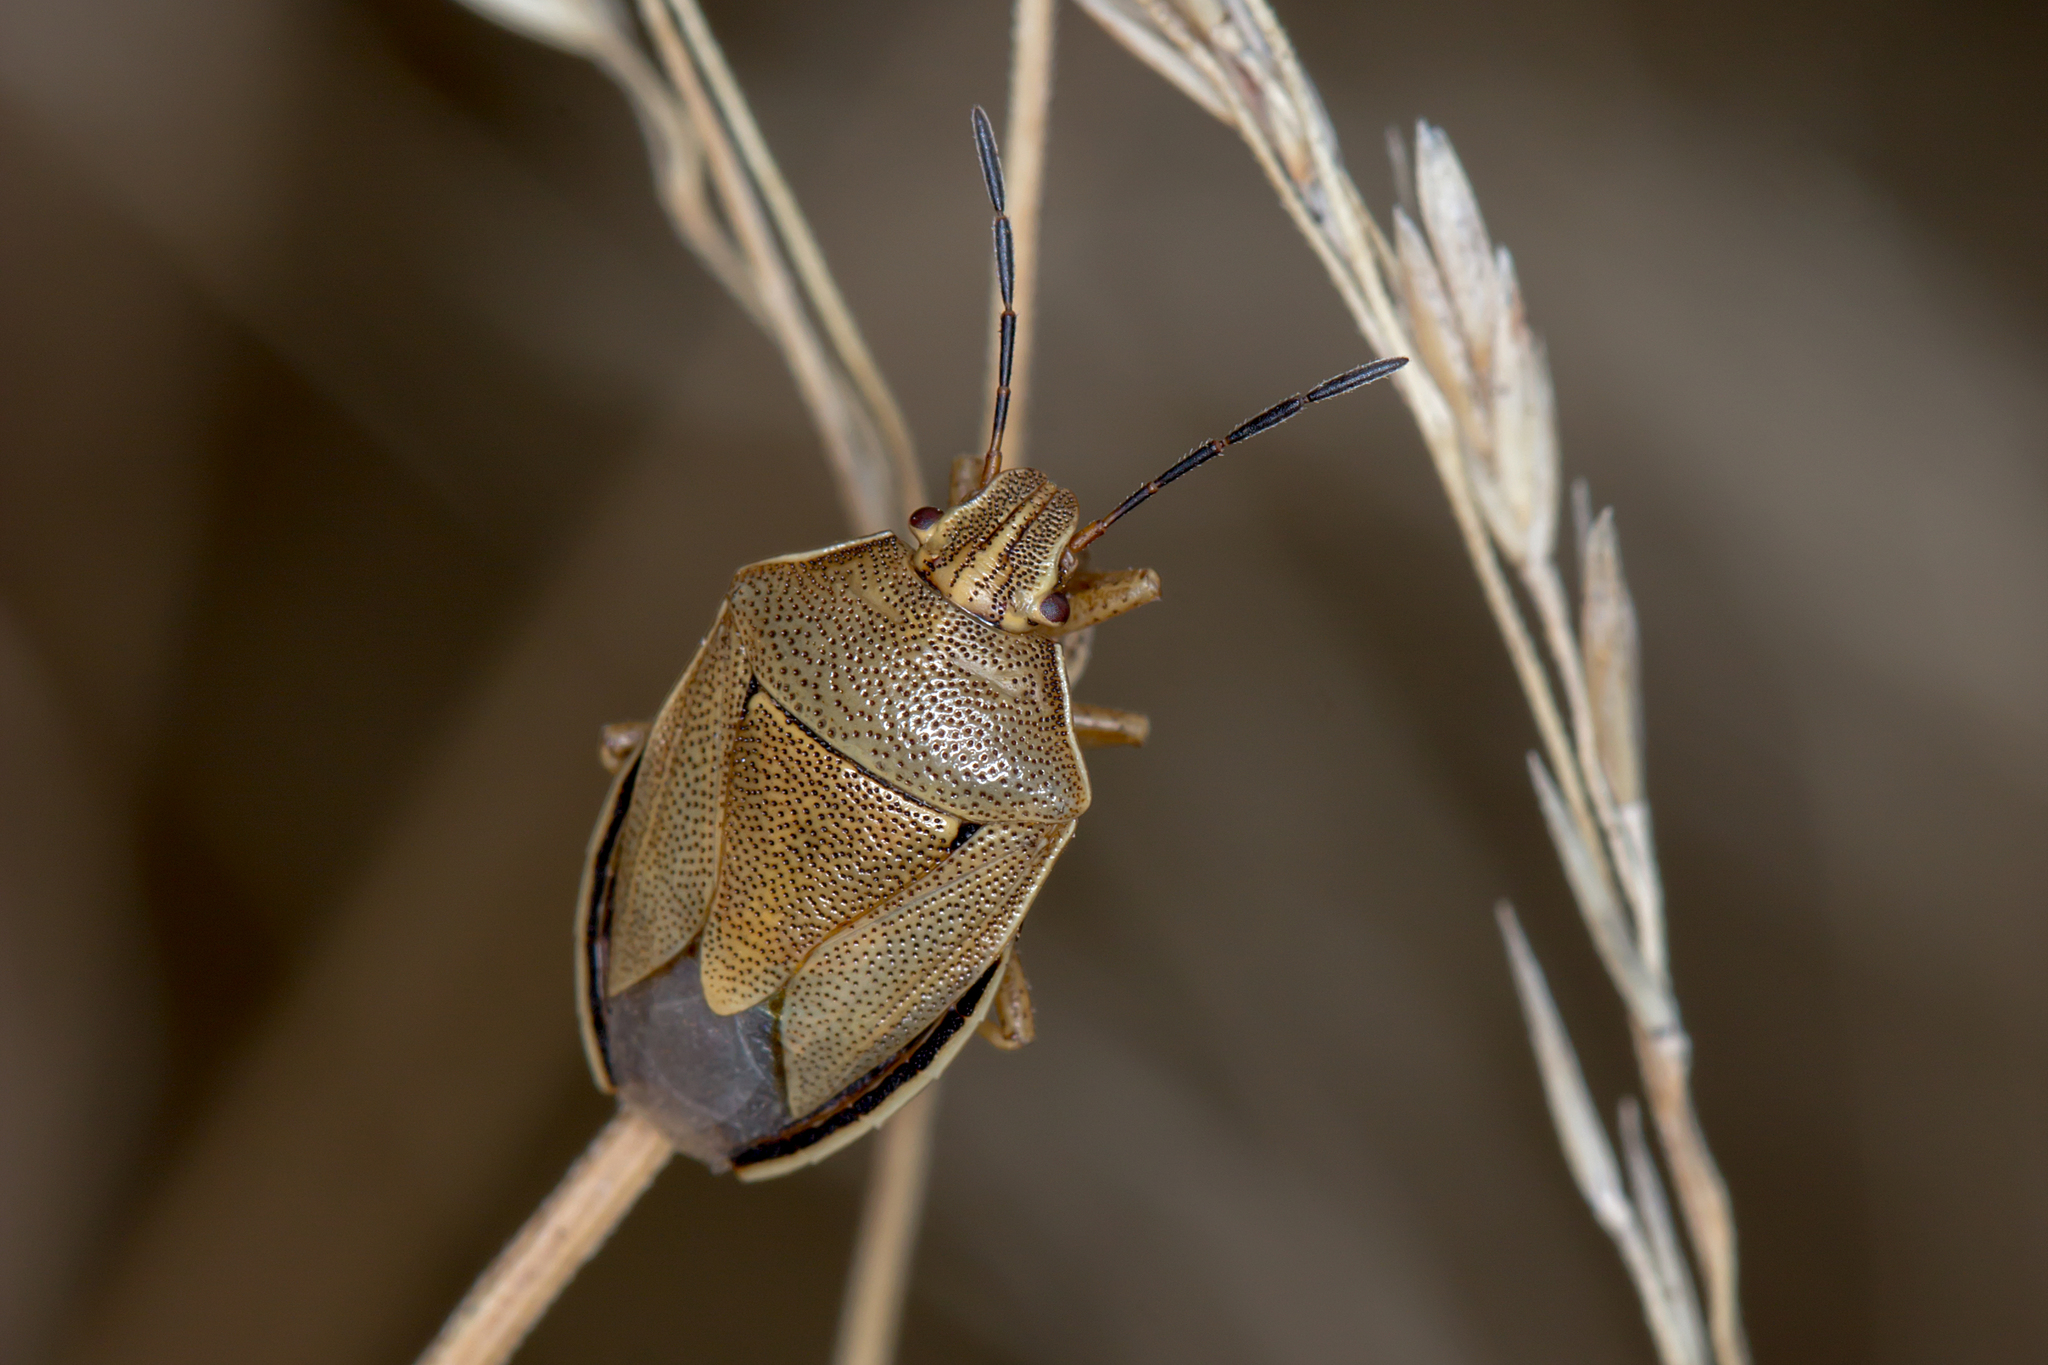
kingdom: Animalia
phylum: Arthropoda
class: Insecta
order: Hemiptera
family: Pentatomidae
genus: Mycoolona
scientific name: Mycoolona
